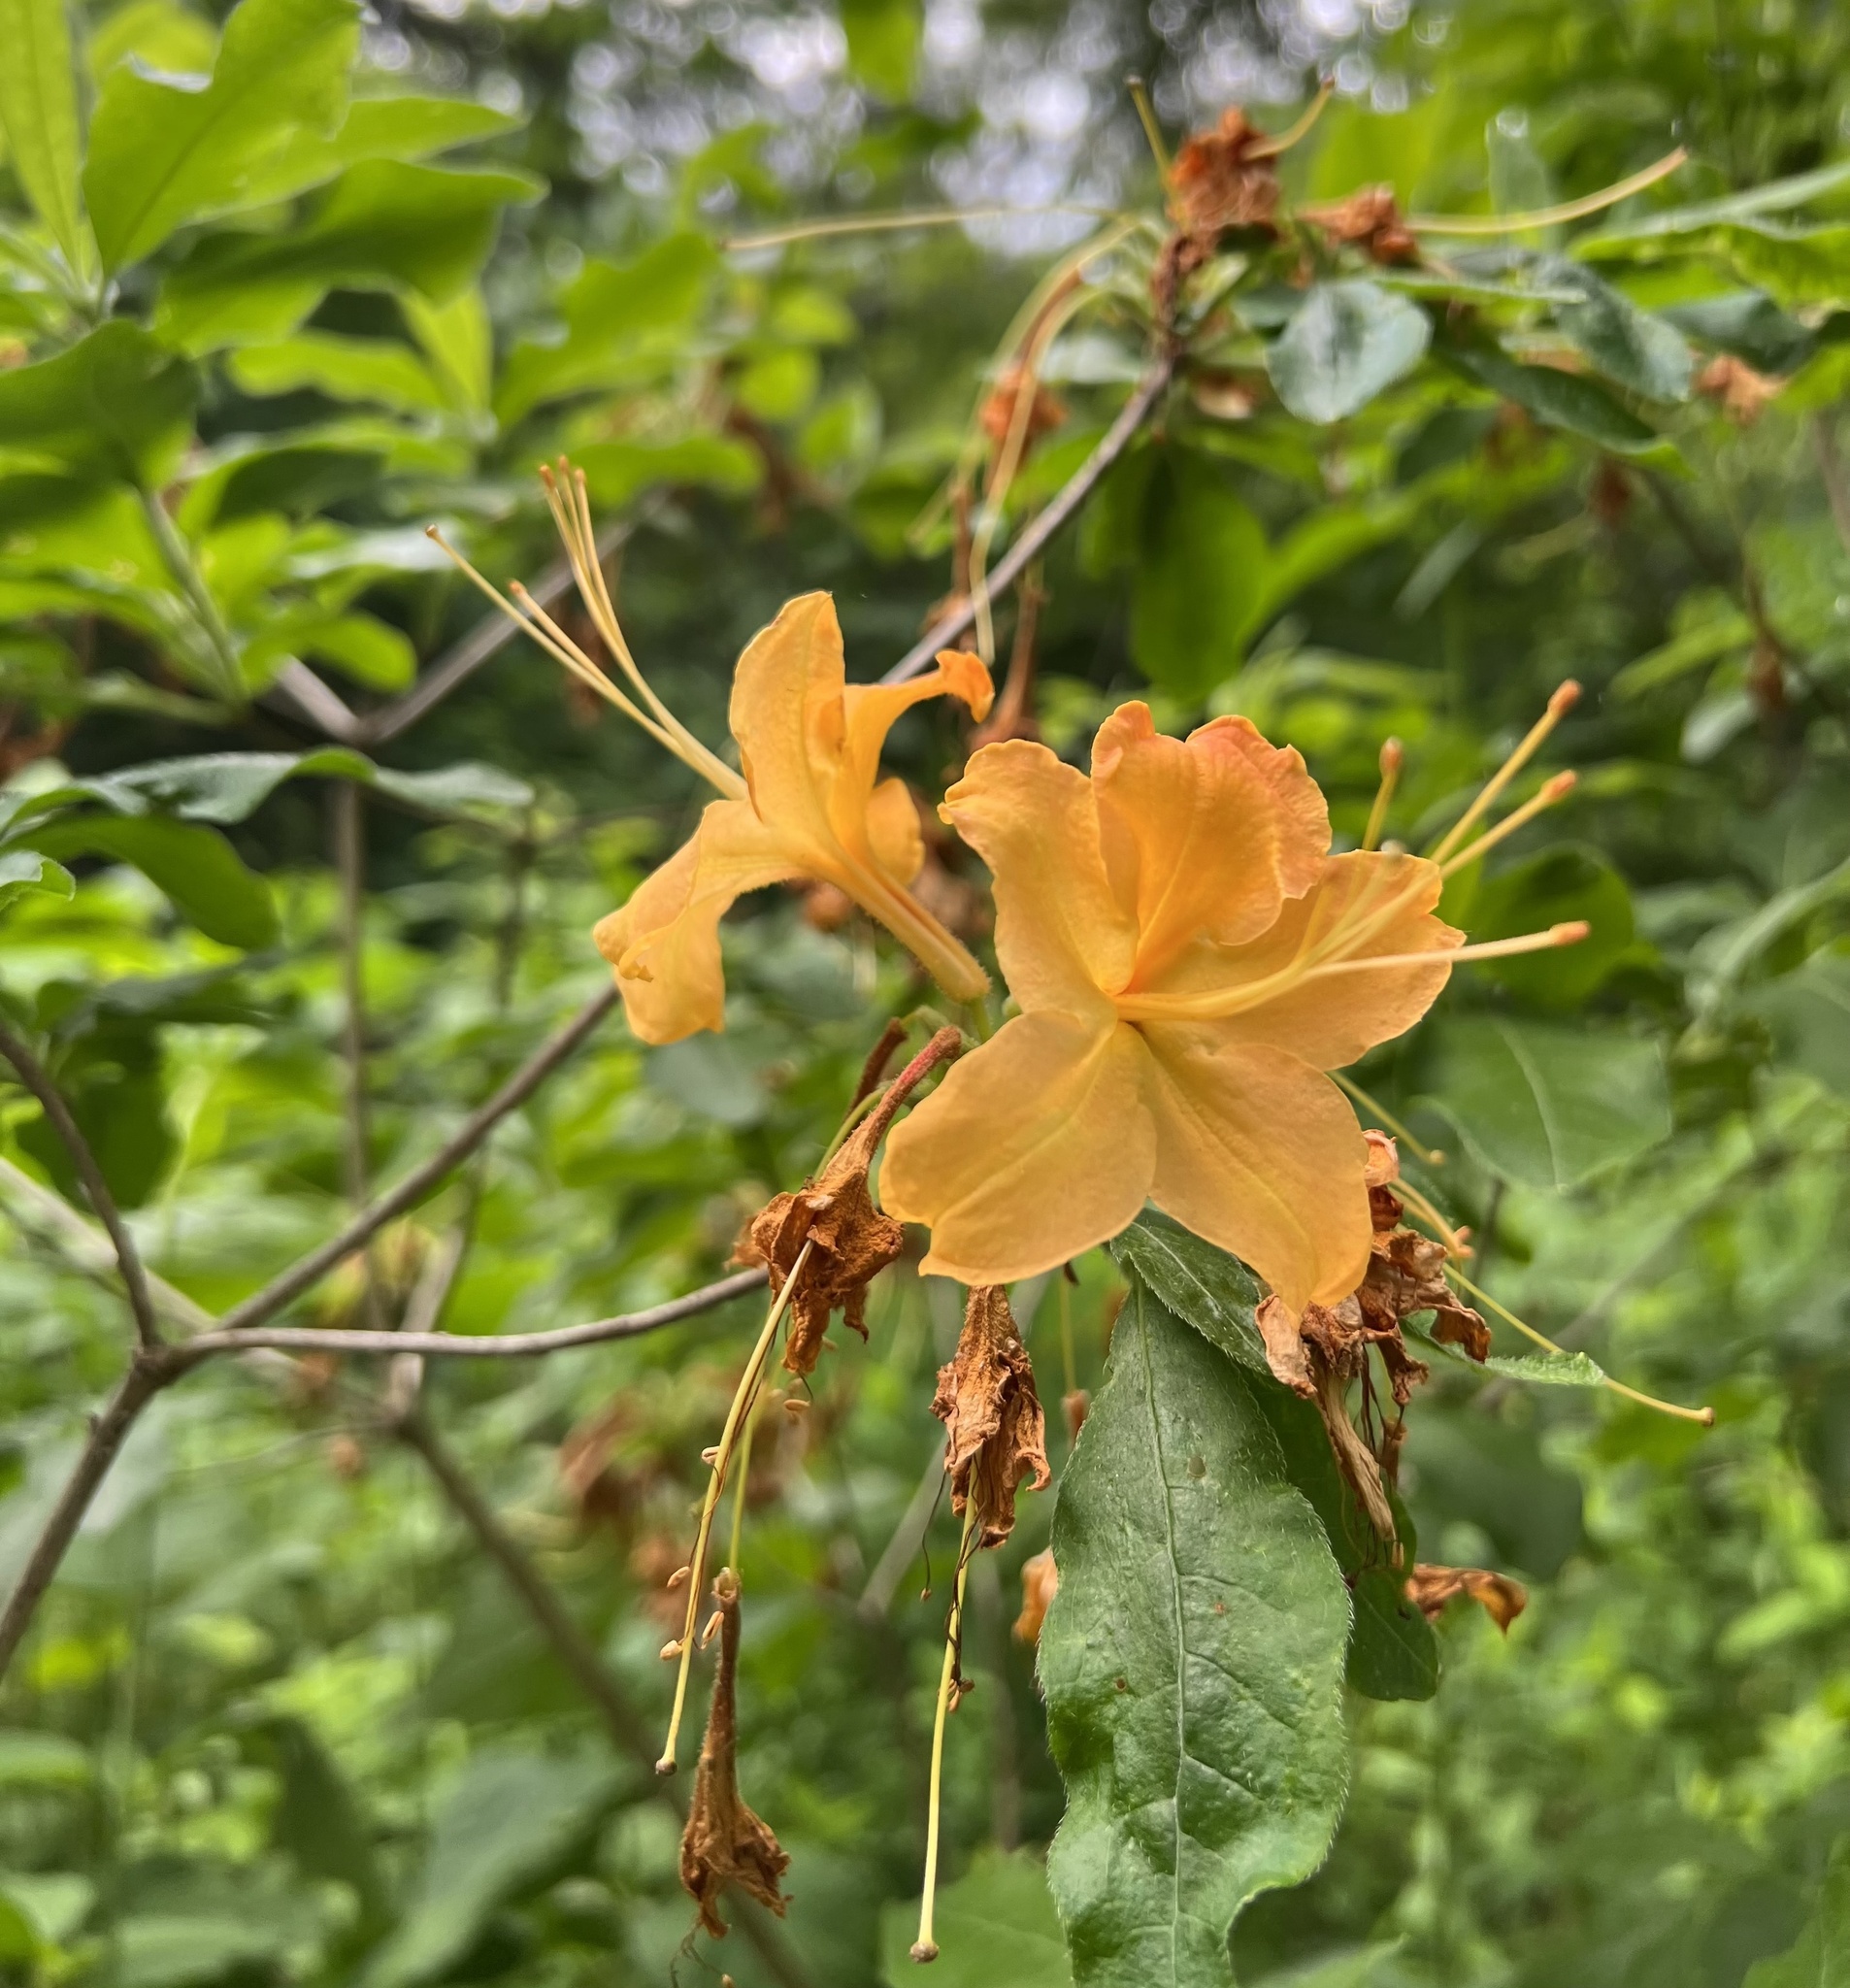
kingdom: Plantae
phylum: Tracheophyta
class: Magnoliopsida
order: Ericales
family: Ericaceae
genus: Rhododendron
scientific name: Rhododendron calendulaceum
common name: Flame azalea
